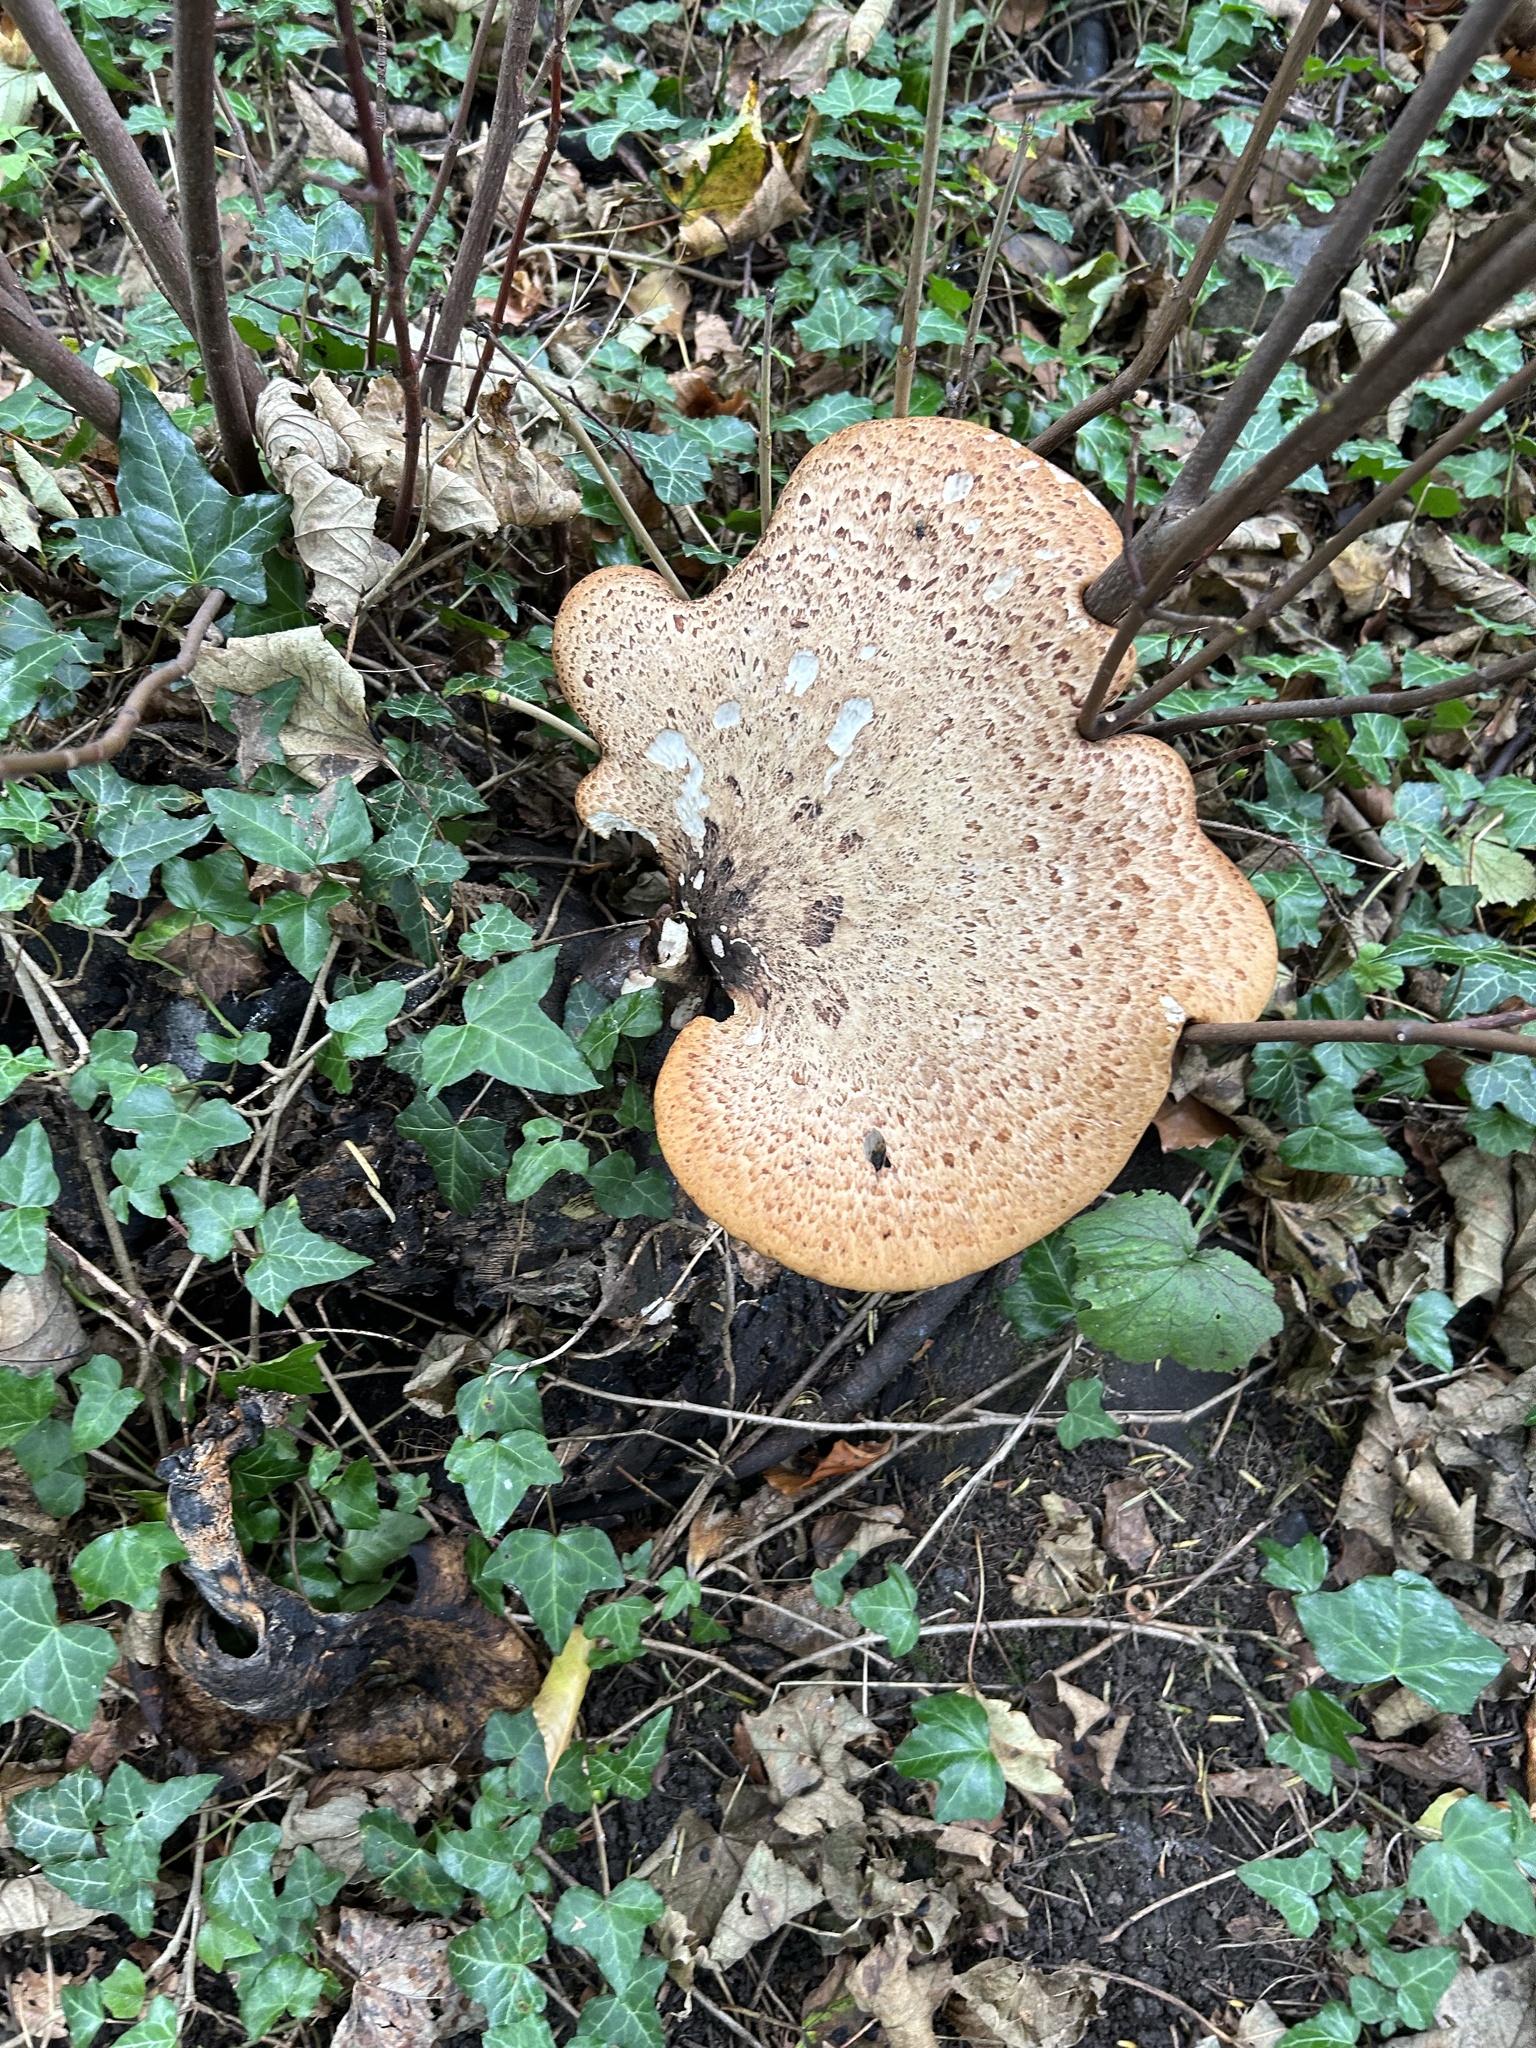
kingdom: Fungi
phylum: Basidiomycota
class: Agaricomycetes
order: Polyporales
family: Polyporaceae
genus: Cerioporus
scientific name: Cerioporus squamosus
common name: Dryad's saddle
